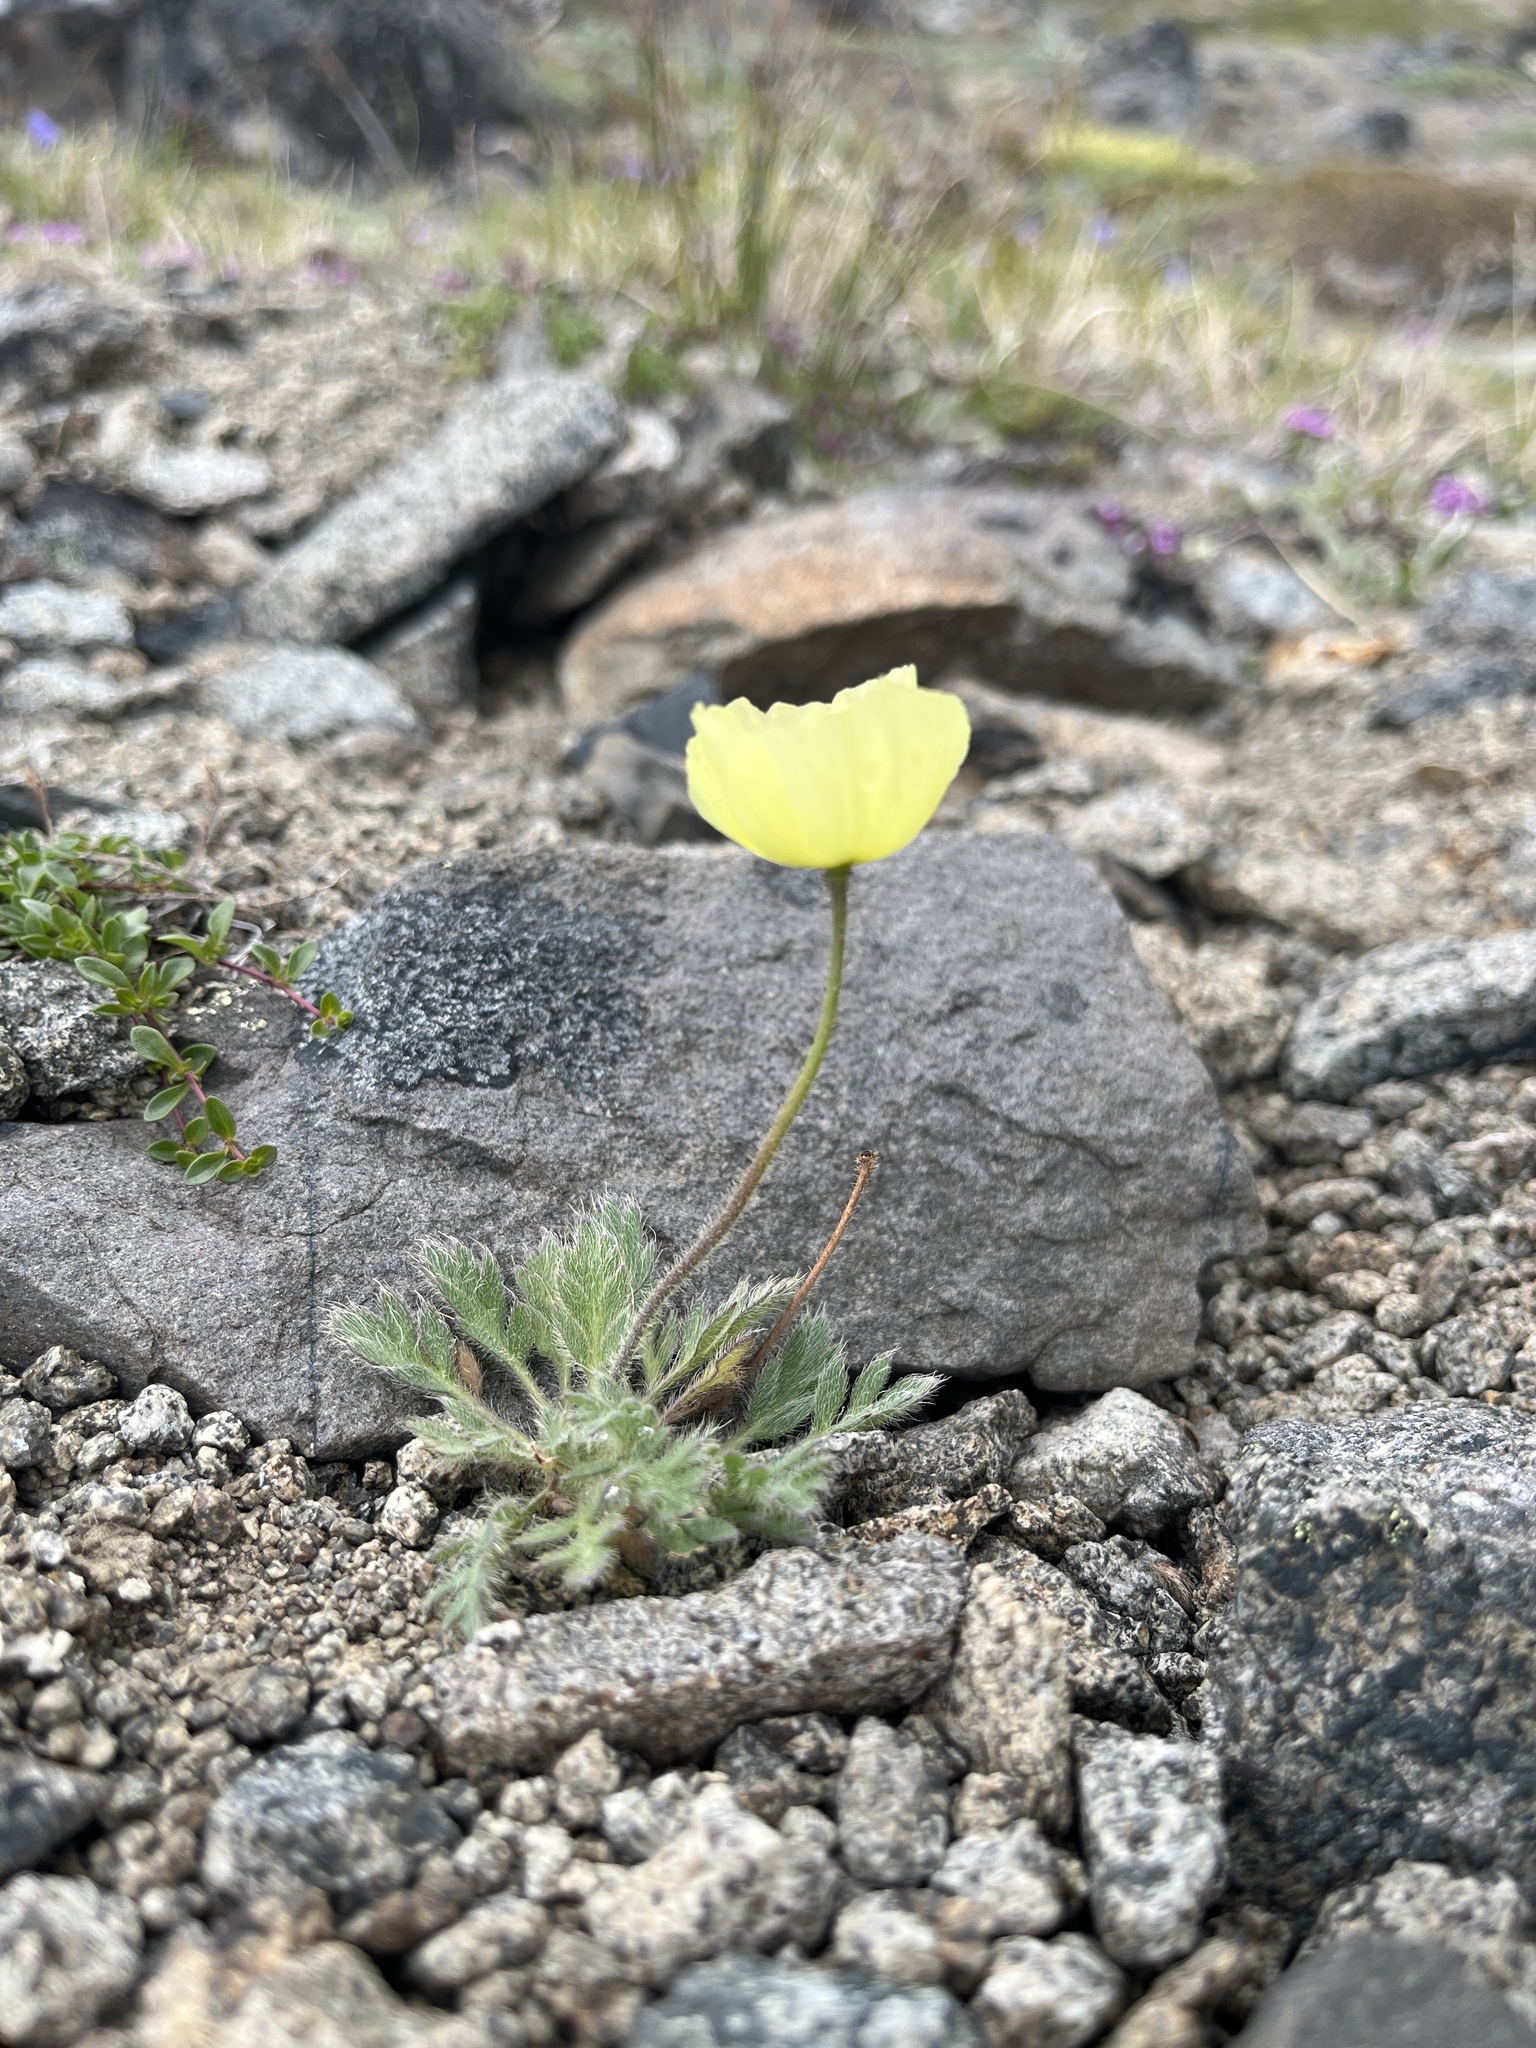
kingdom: Plantae
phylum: Tracheophyta
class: Magnoliopsida
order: Ranunculales
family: Papaveraceae
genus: Papaver
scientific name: Papaver radicatum
